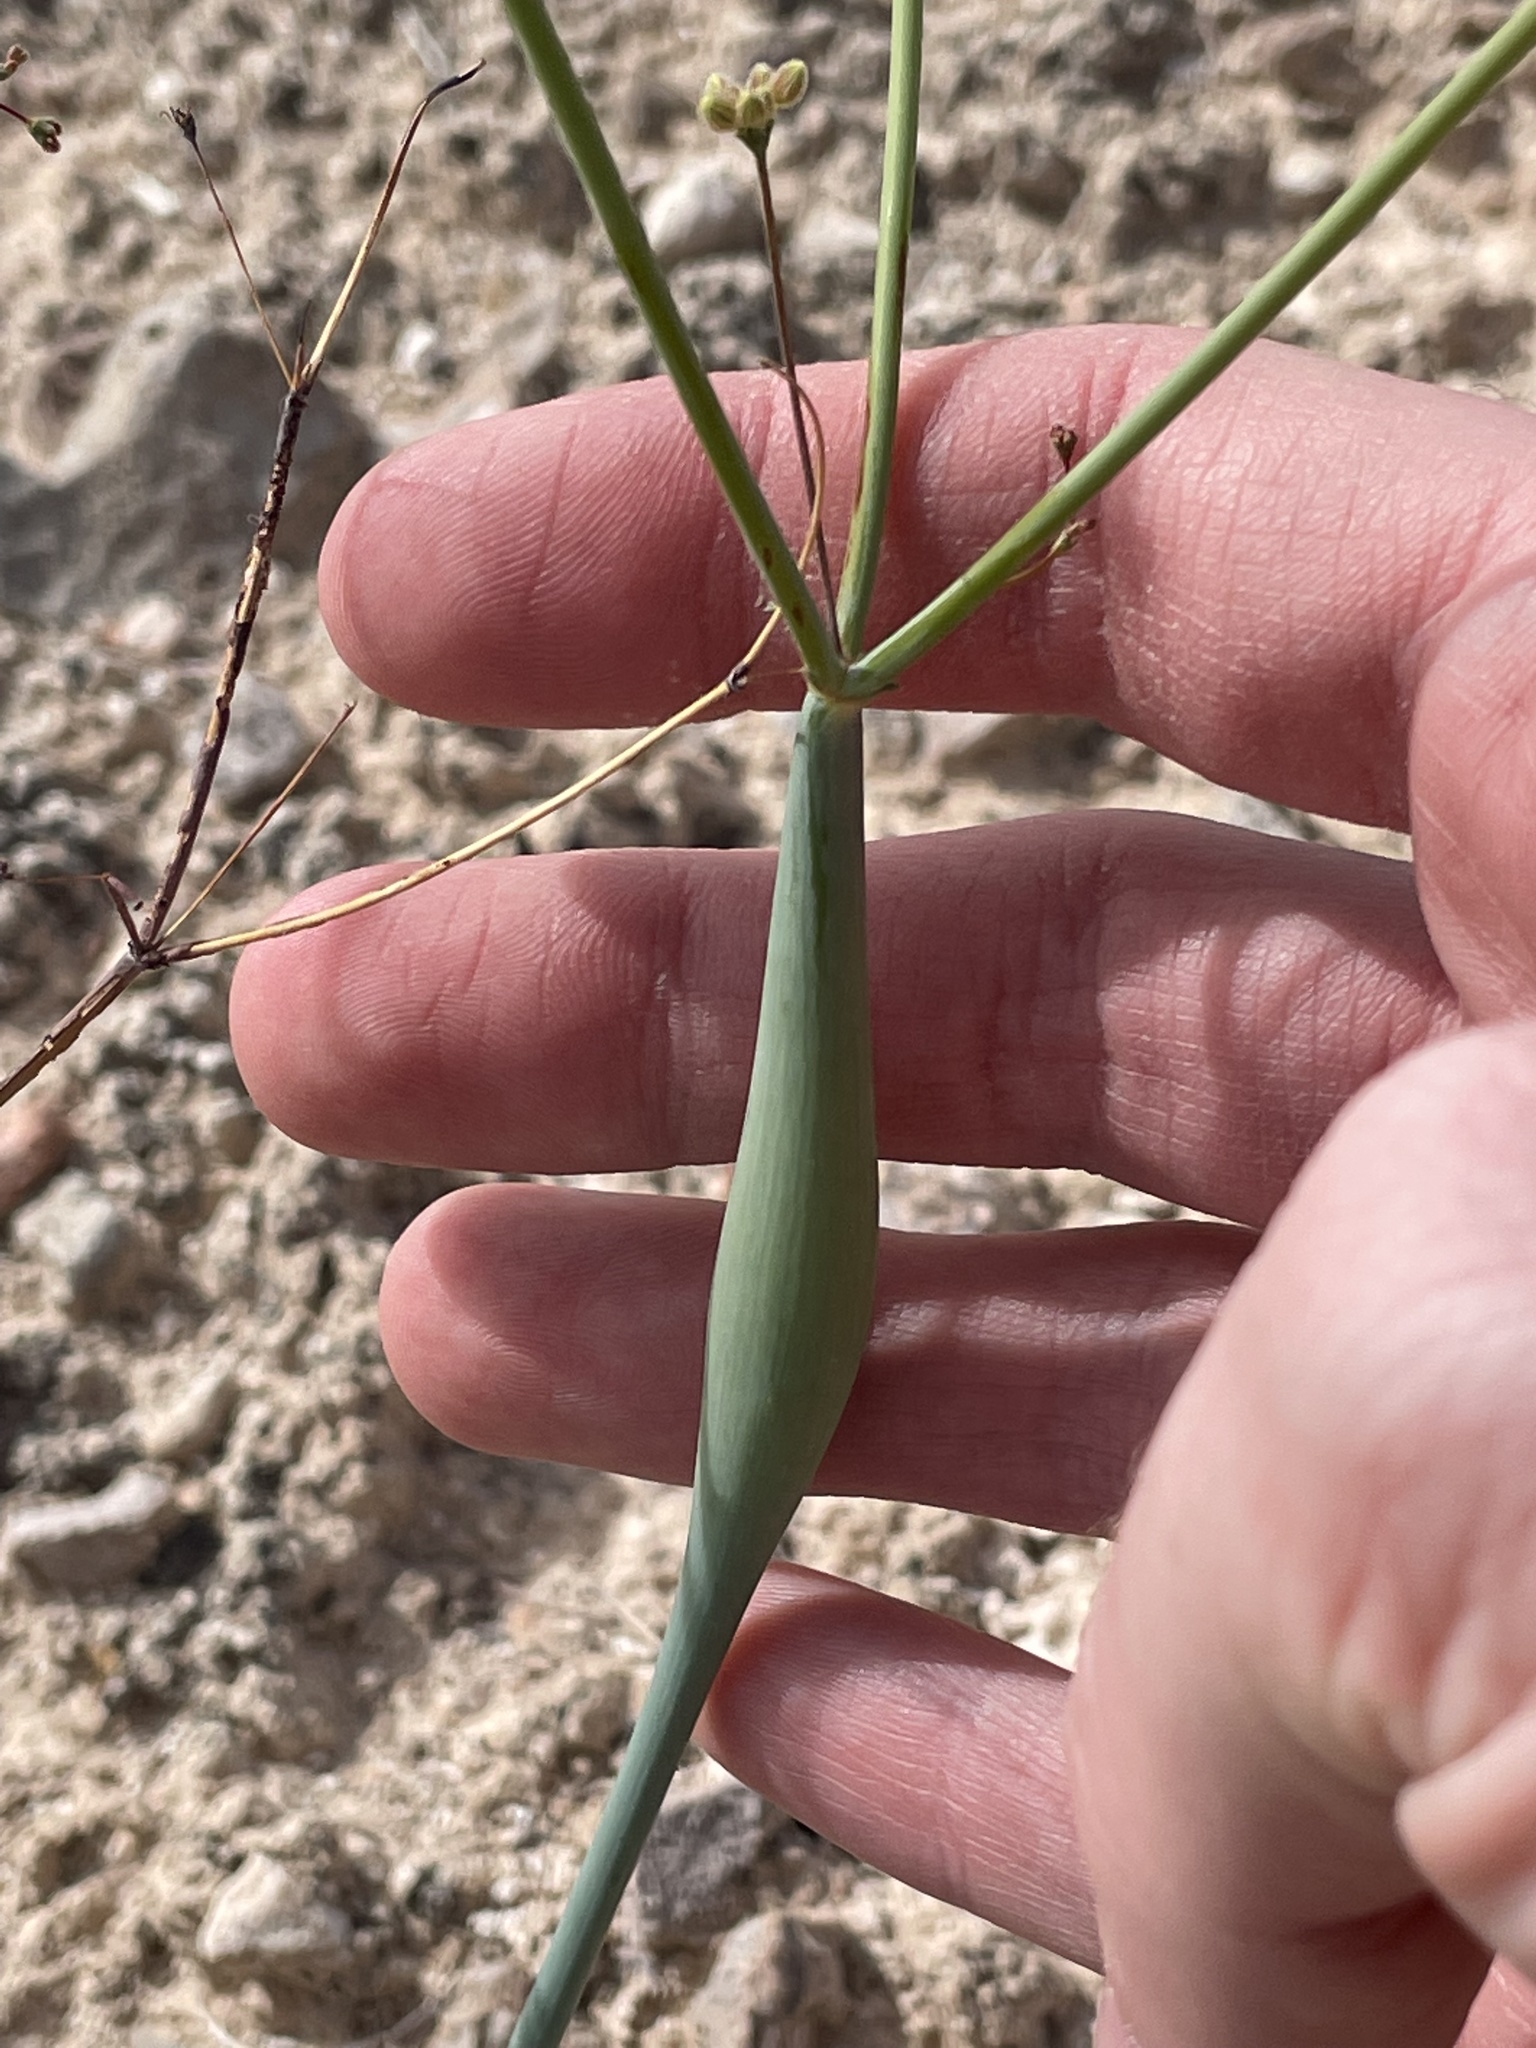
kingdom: Plantae
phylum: Tracheophyta
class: Magnoliopsida
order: Caryophyllales
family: Polygonaceae
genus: Eriogonum
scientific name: Eriogonum inflatum
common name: Desert trumpet
